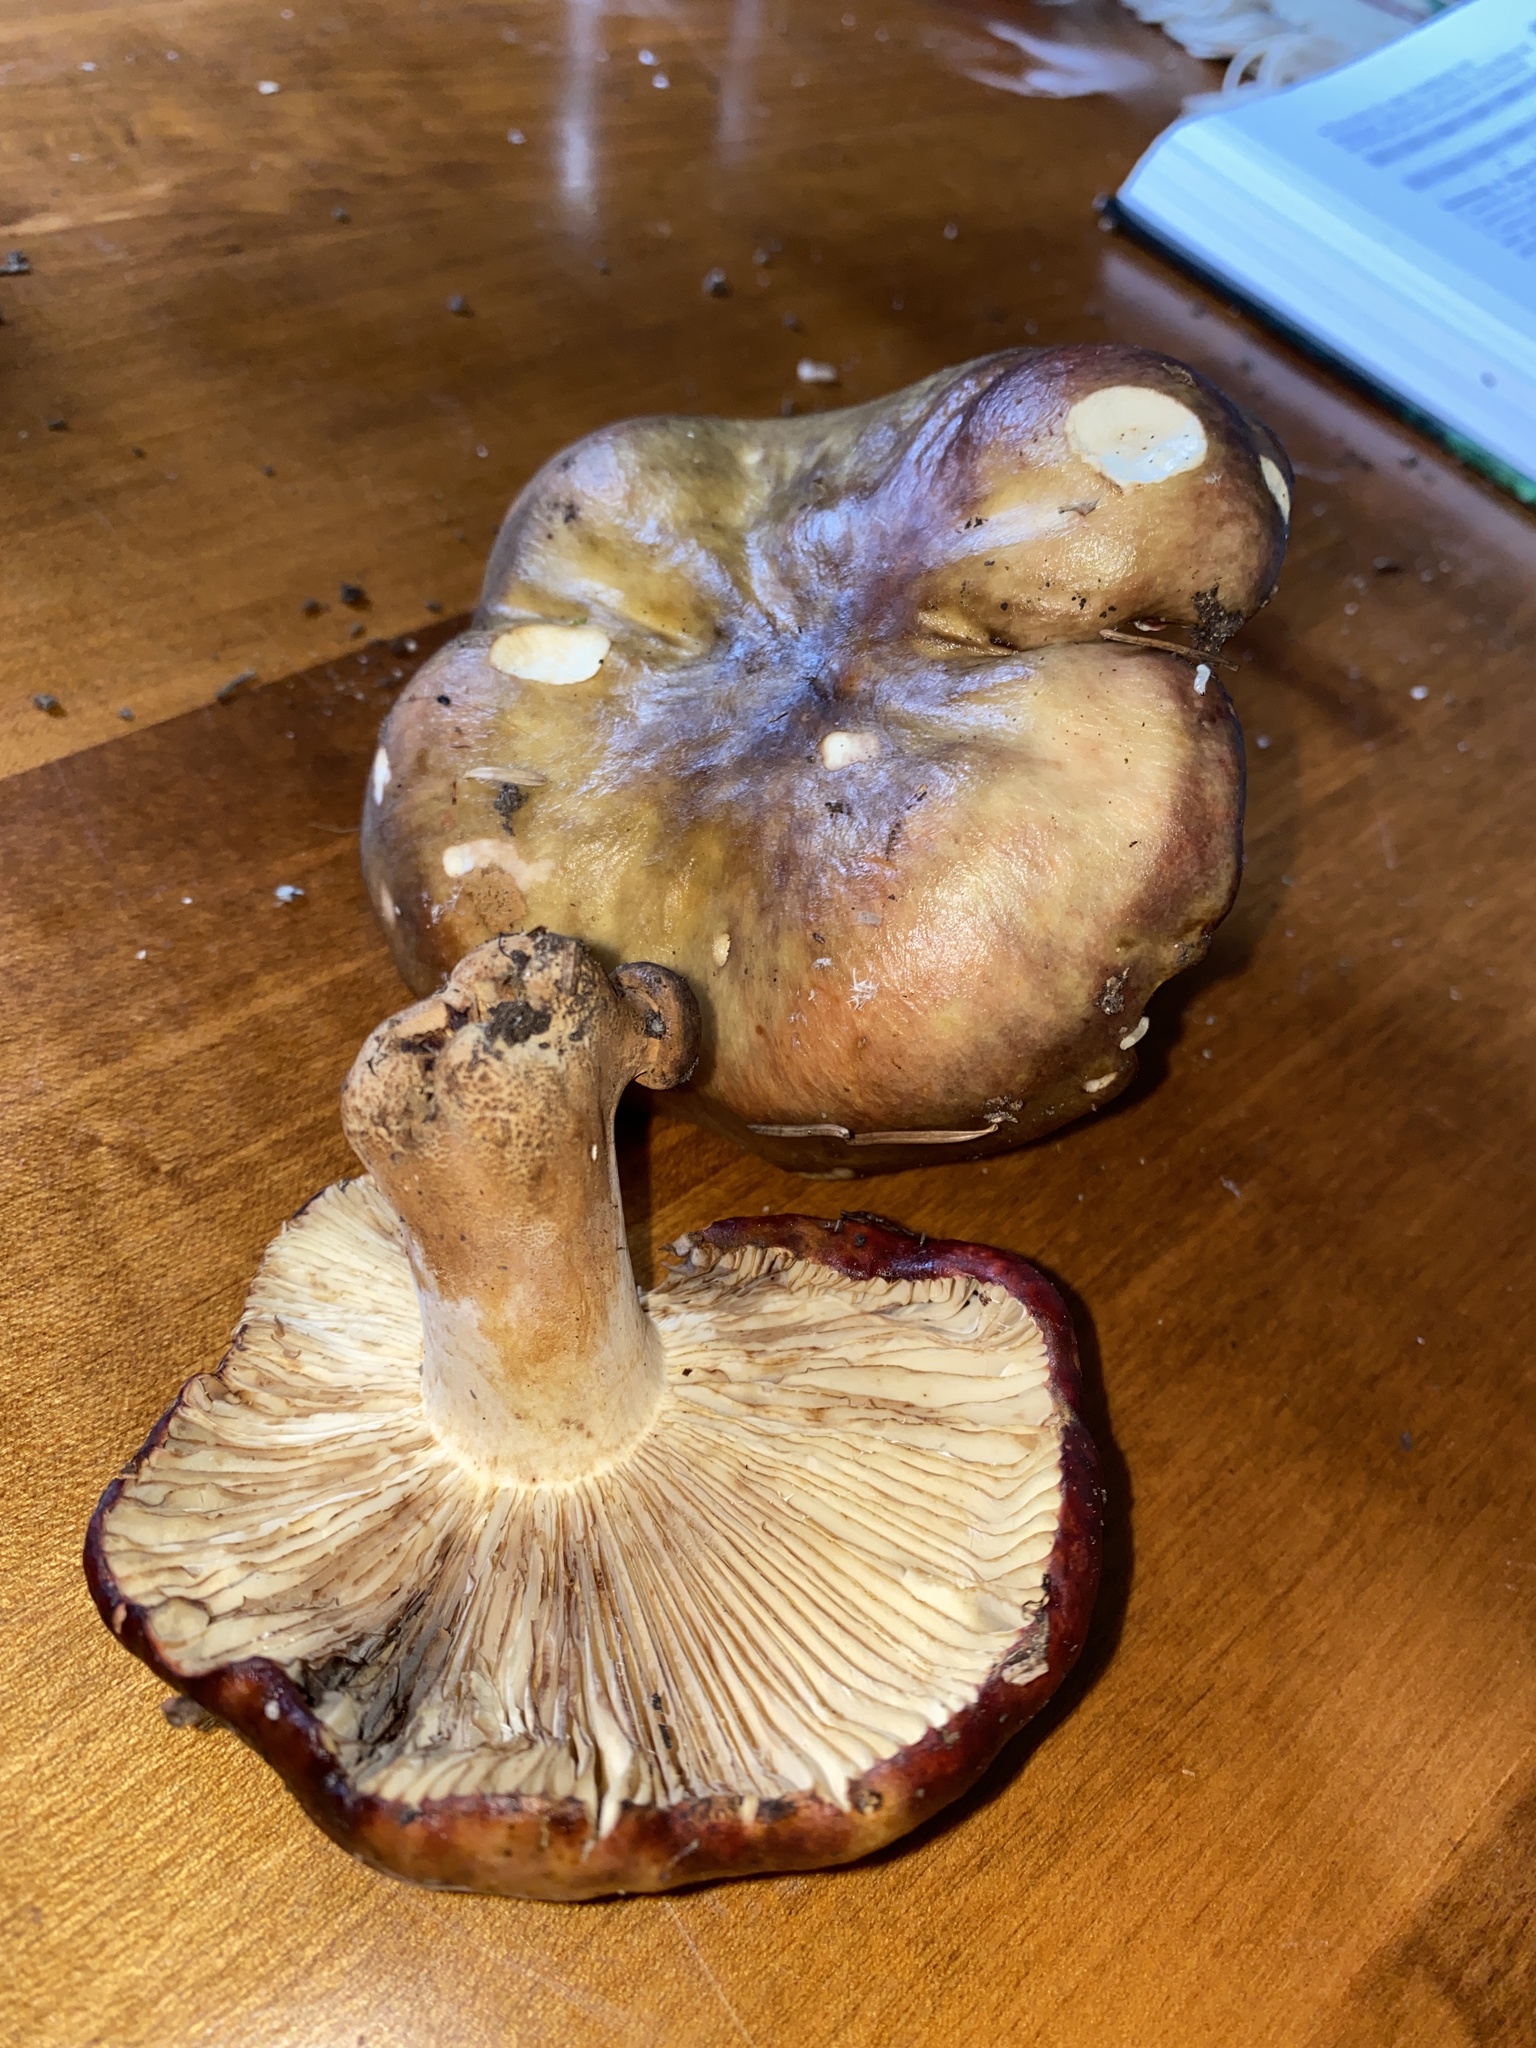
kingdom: Fungi
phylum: Basidiomycota
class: Agaricomycetes
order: Russulales
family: Russulaceae
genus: Russula
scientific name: Russula viscida
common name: Viscid brittlegill
